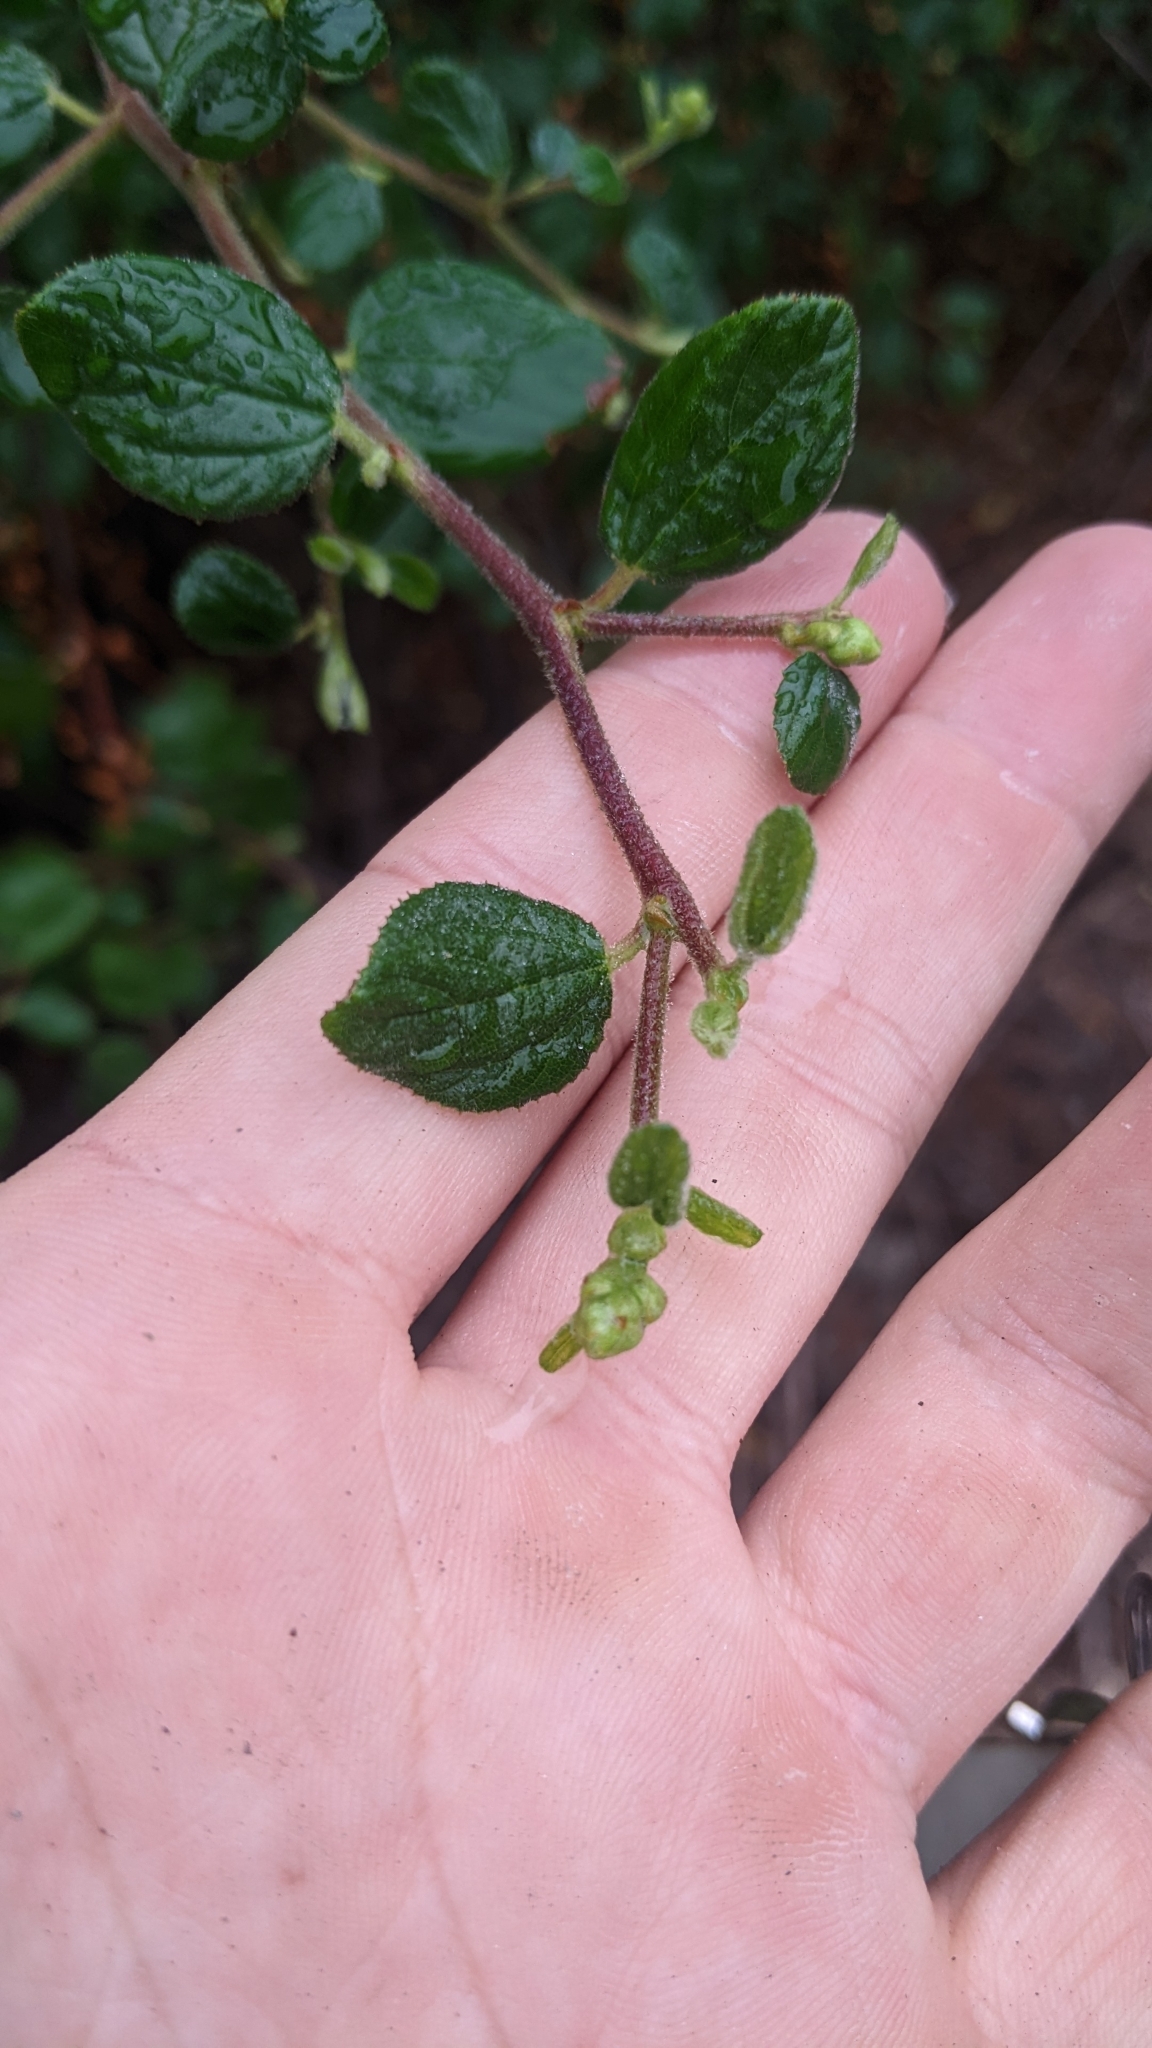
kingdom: Plantae
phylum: Tracheophyta
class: Magnoliopsida
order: Rosales
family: Rhamnaceae
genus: Ceanothus
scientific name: Ceanothus oliganthus
